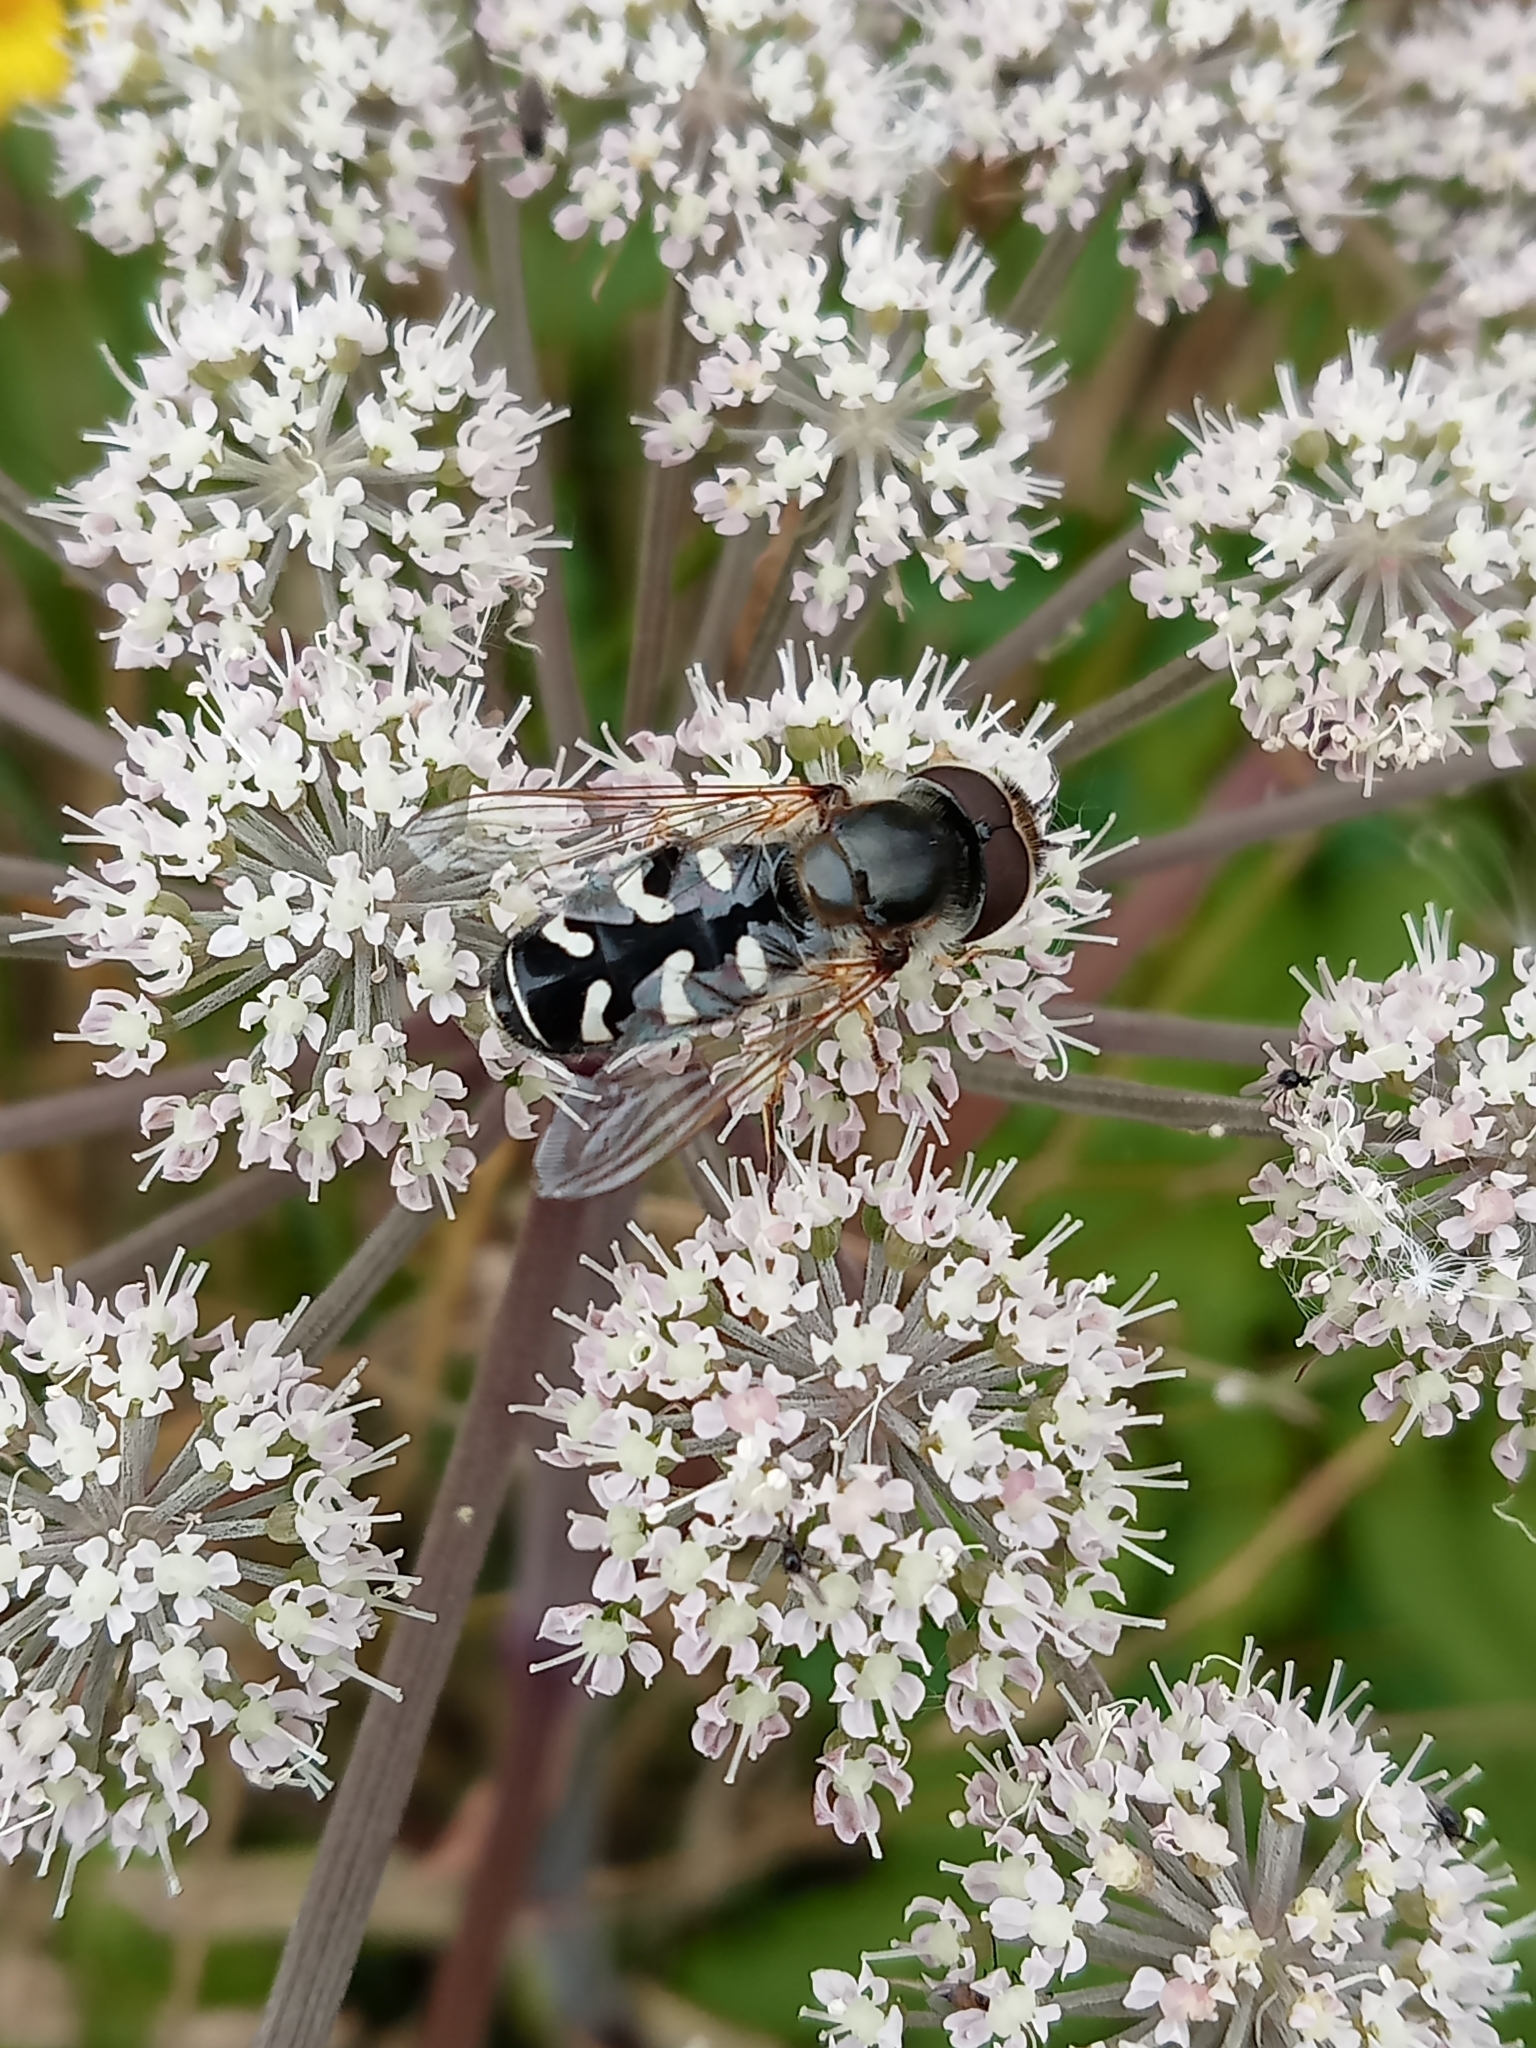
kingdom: Animalia
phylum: Arthropoda
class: Insecta
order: Diptera
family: Syrphidae
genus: Scaeva
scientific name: Scaeva pyrastri
